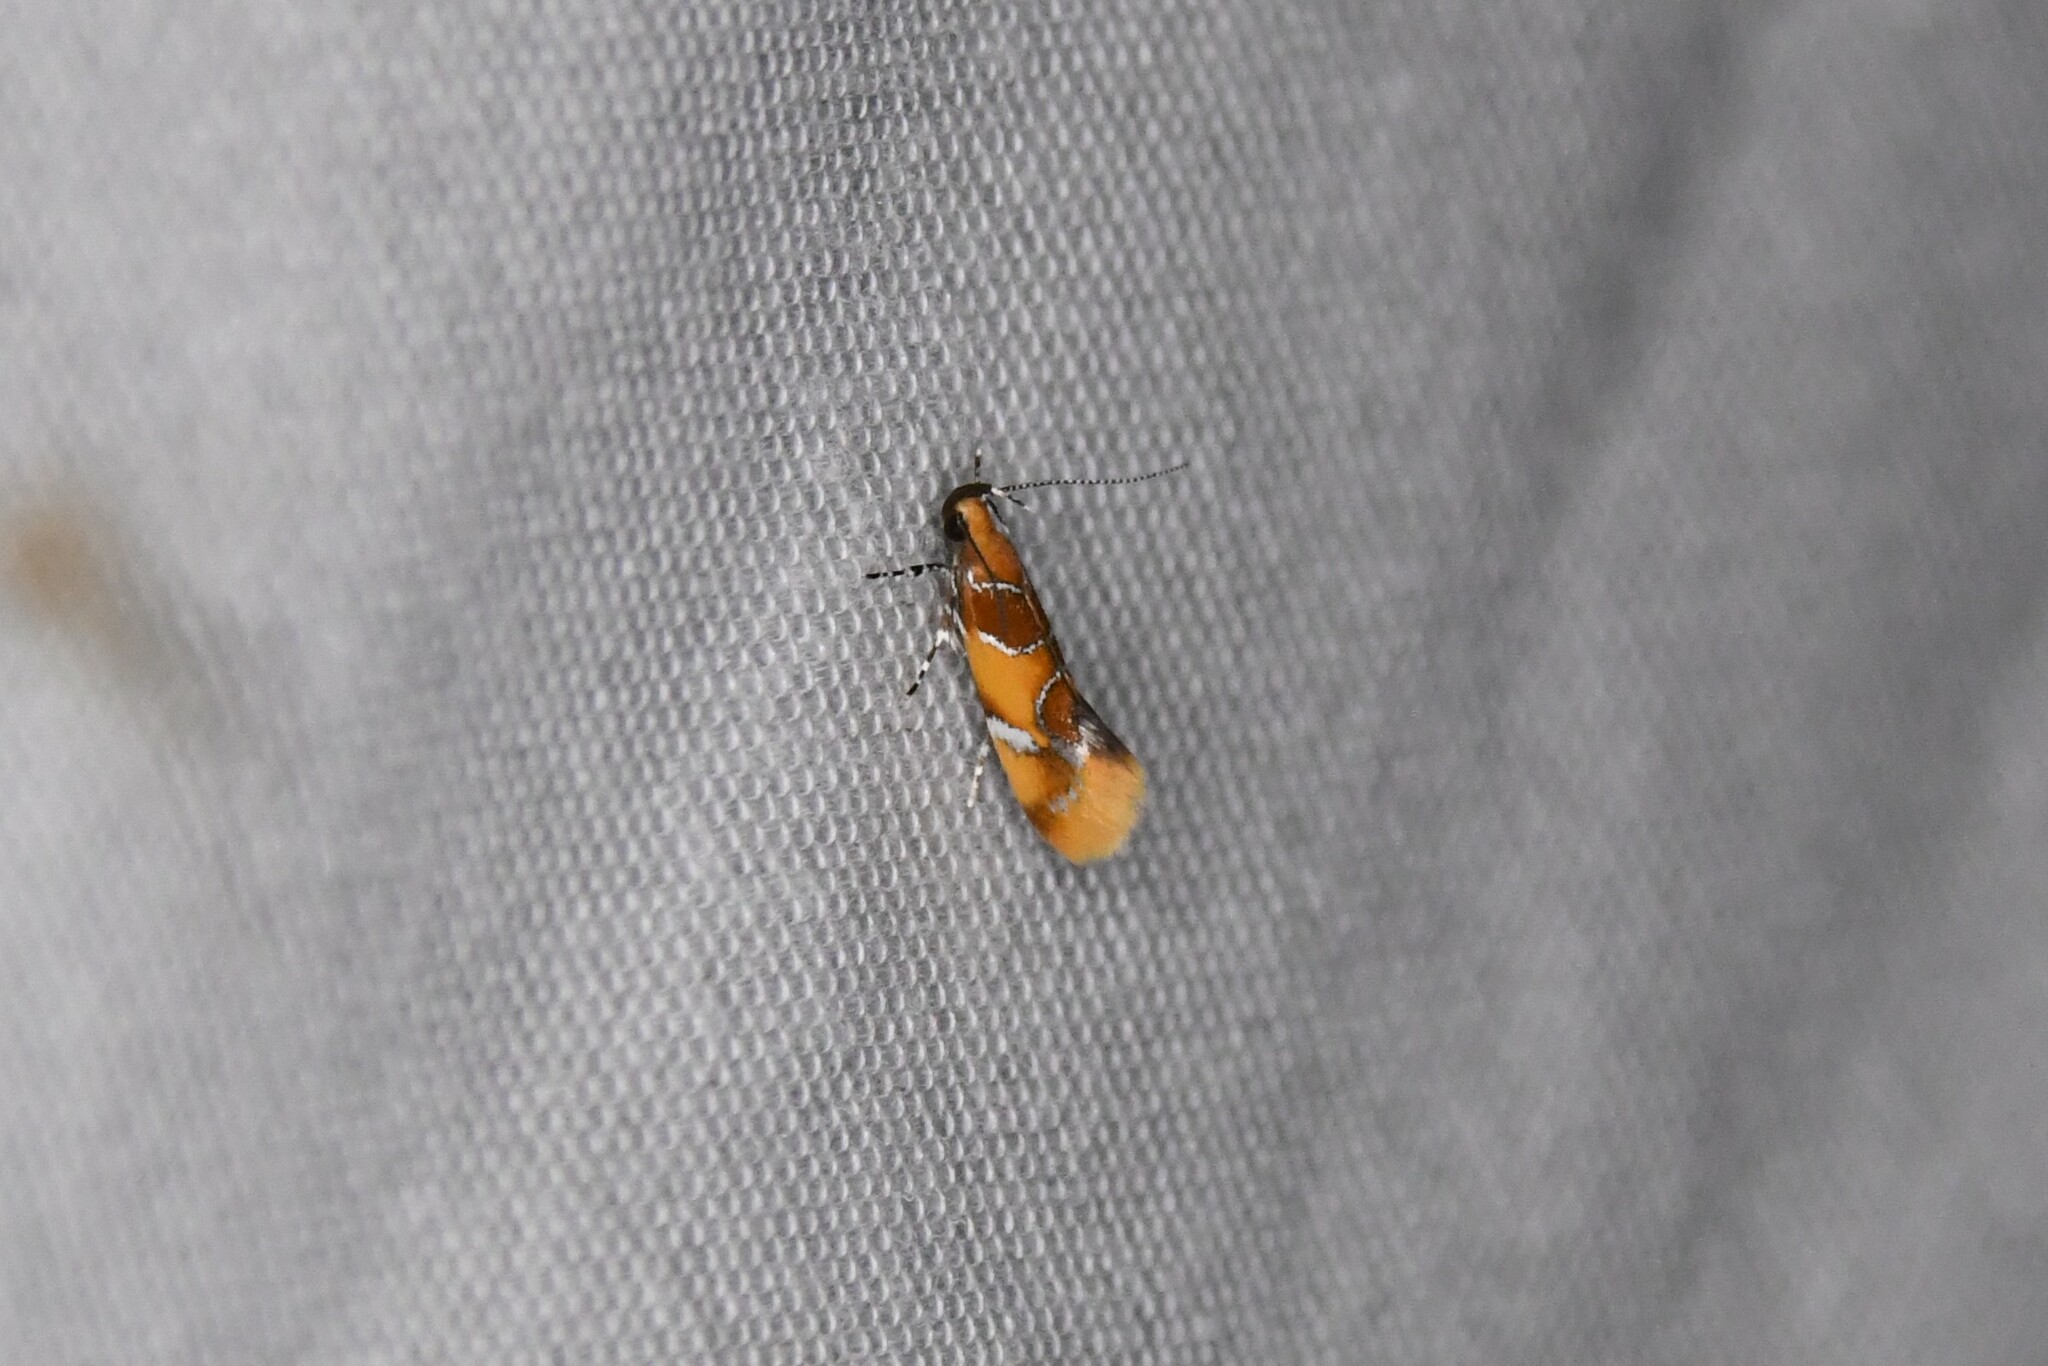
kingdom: Animalia
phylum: Arthropoda
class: Insecta
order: Lepidoptera
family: Oecophoridae
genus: Callima
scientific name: Callima argenticinctella
